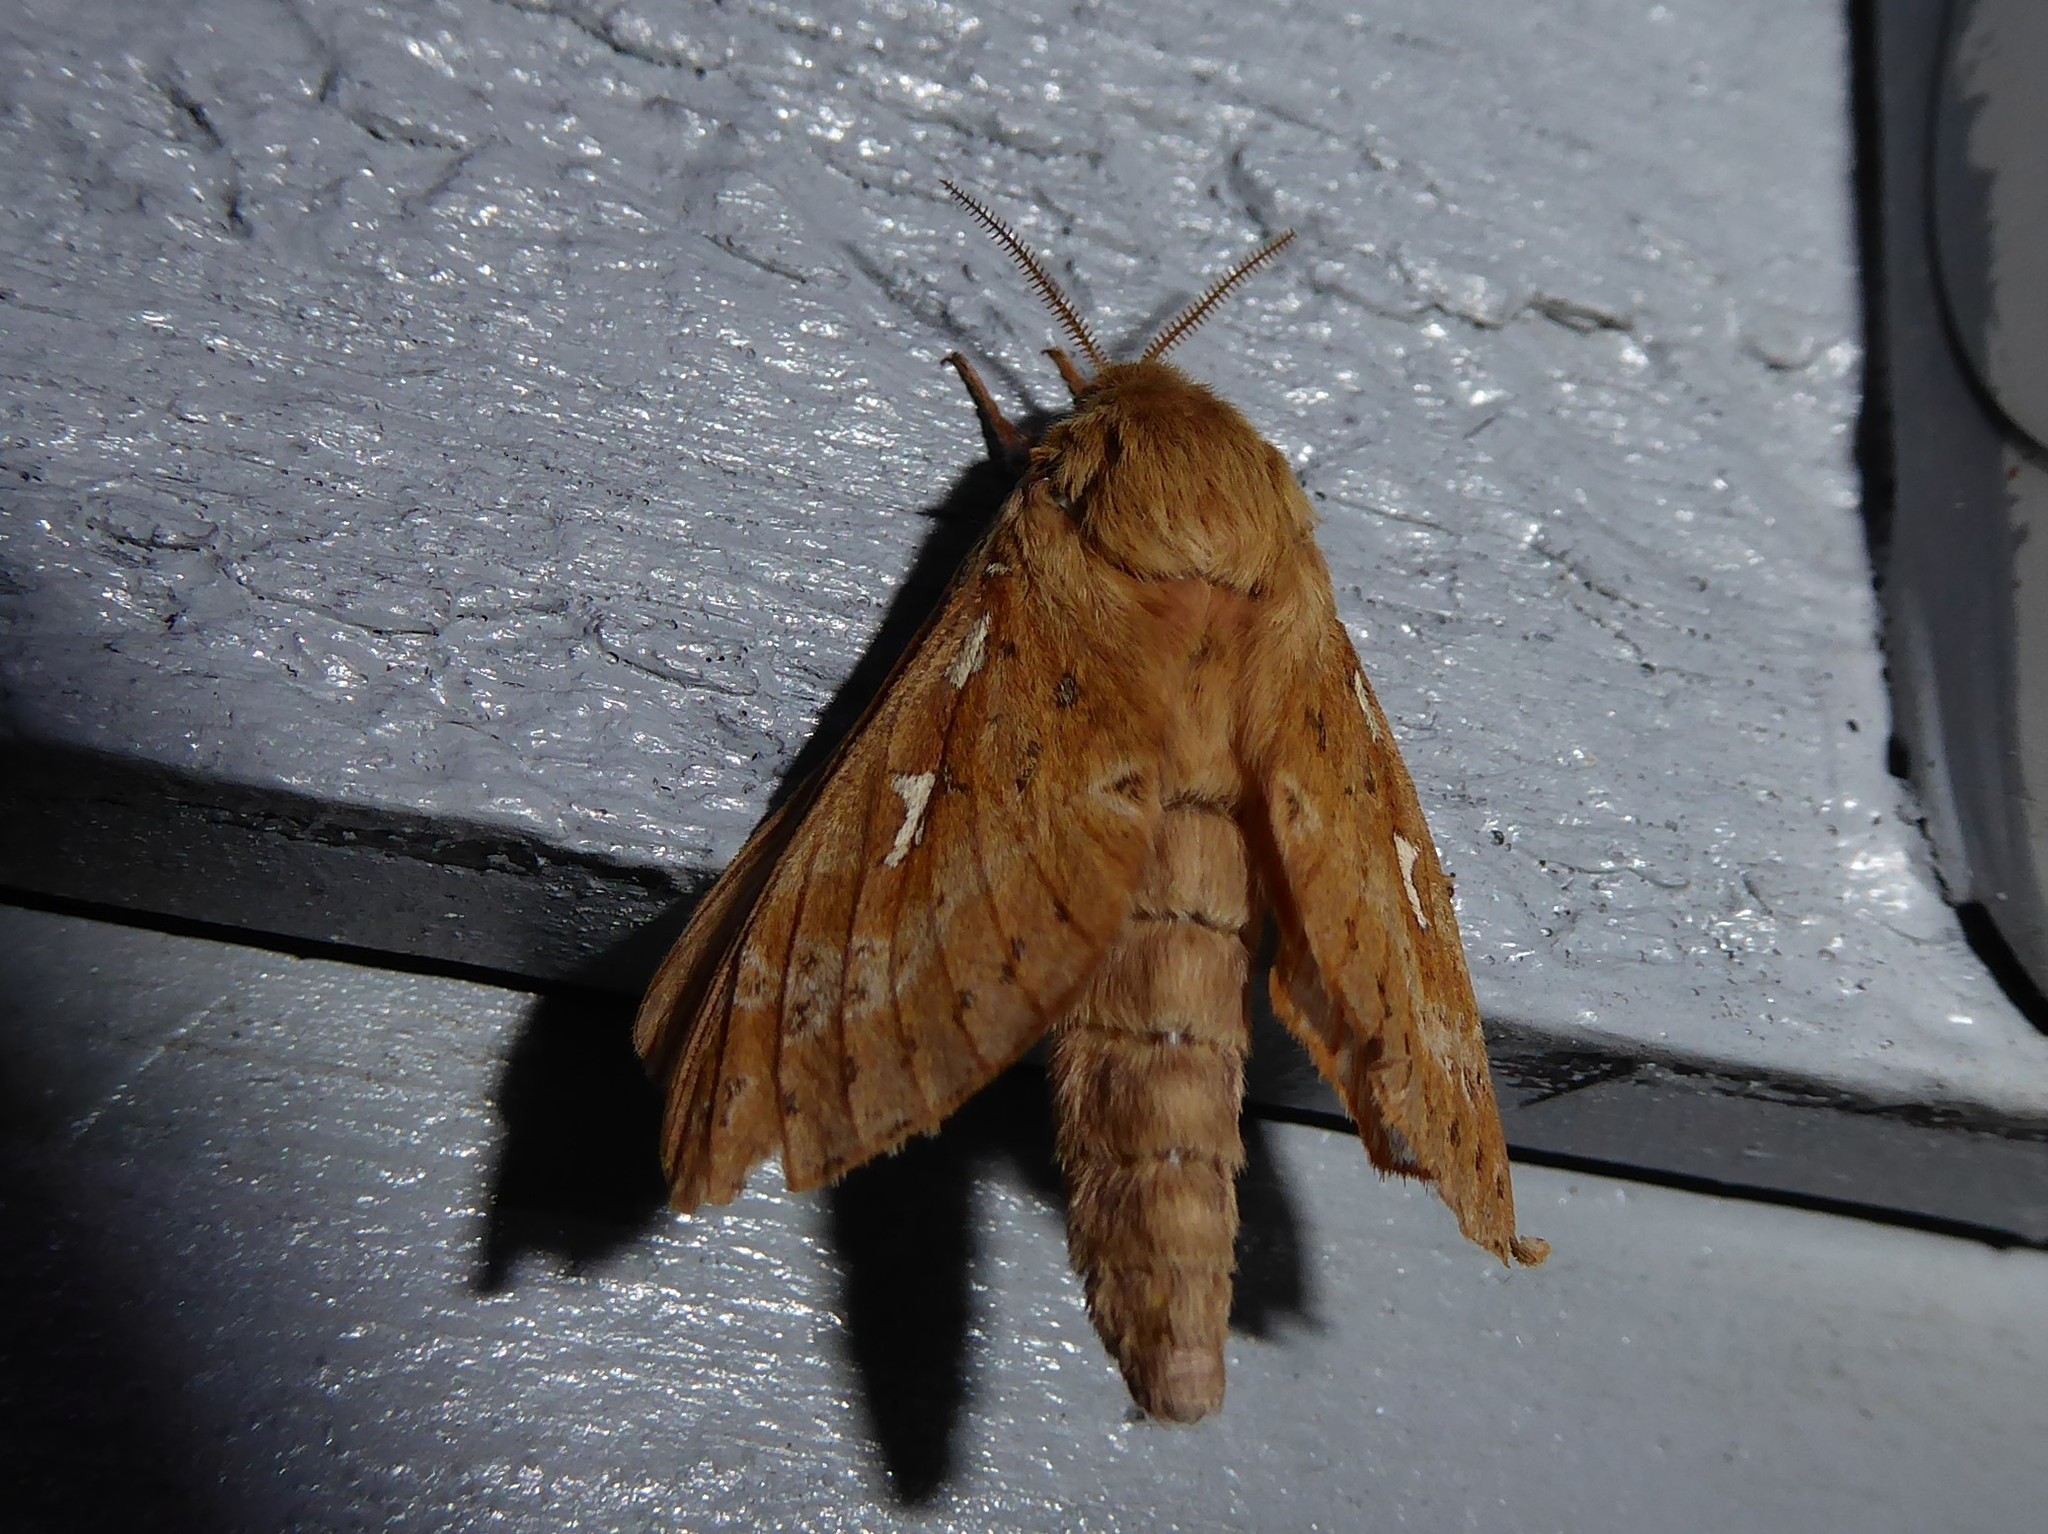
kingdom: Animalia
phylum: Arthropoda
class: Insecta
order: Lepidoptera
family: Hepialidae
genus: Wiseana
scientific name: Wiseana copularis
